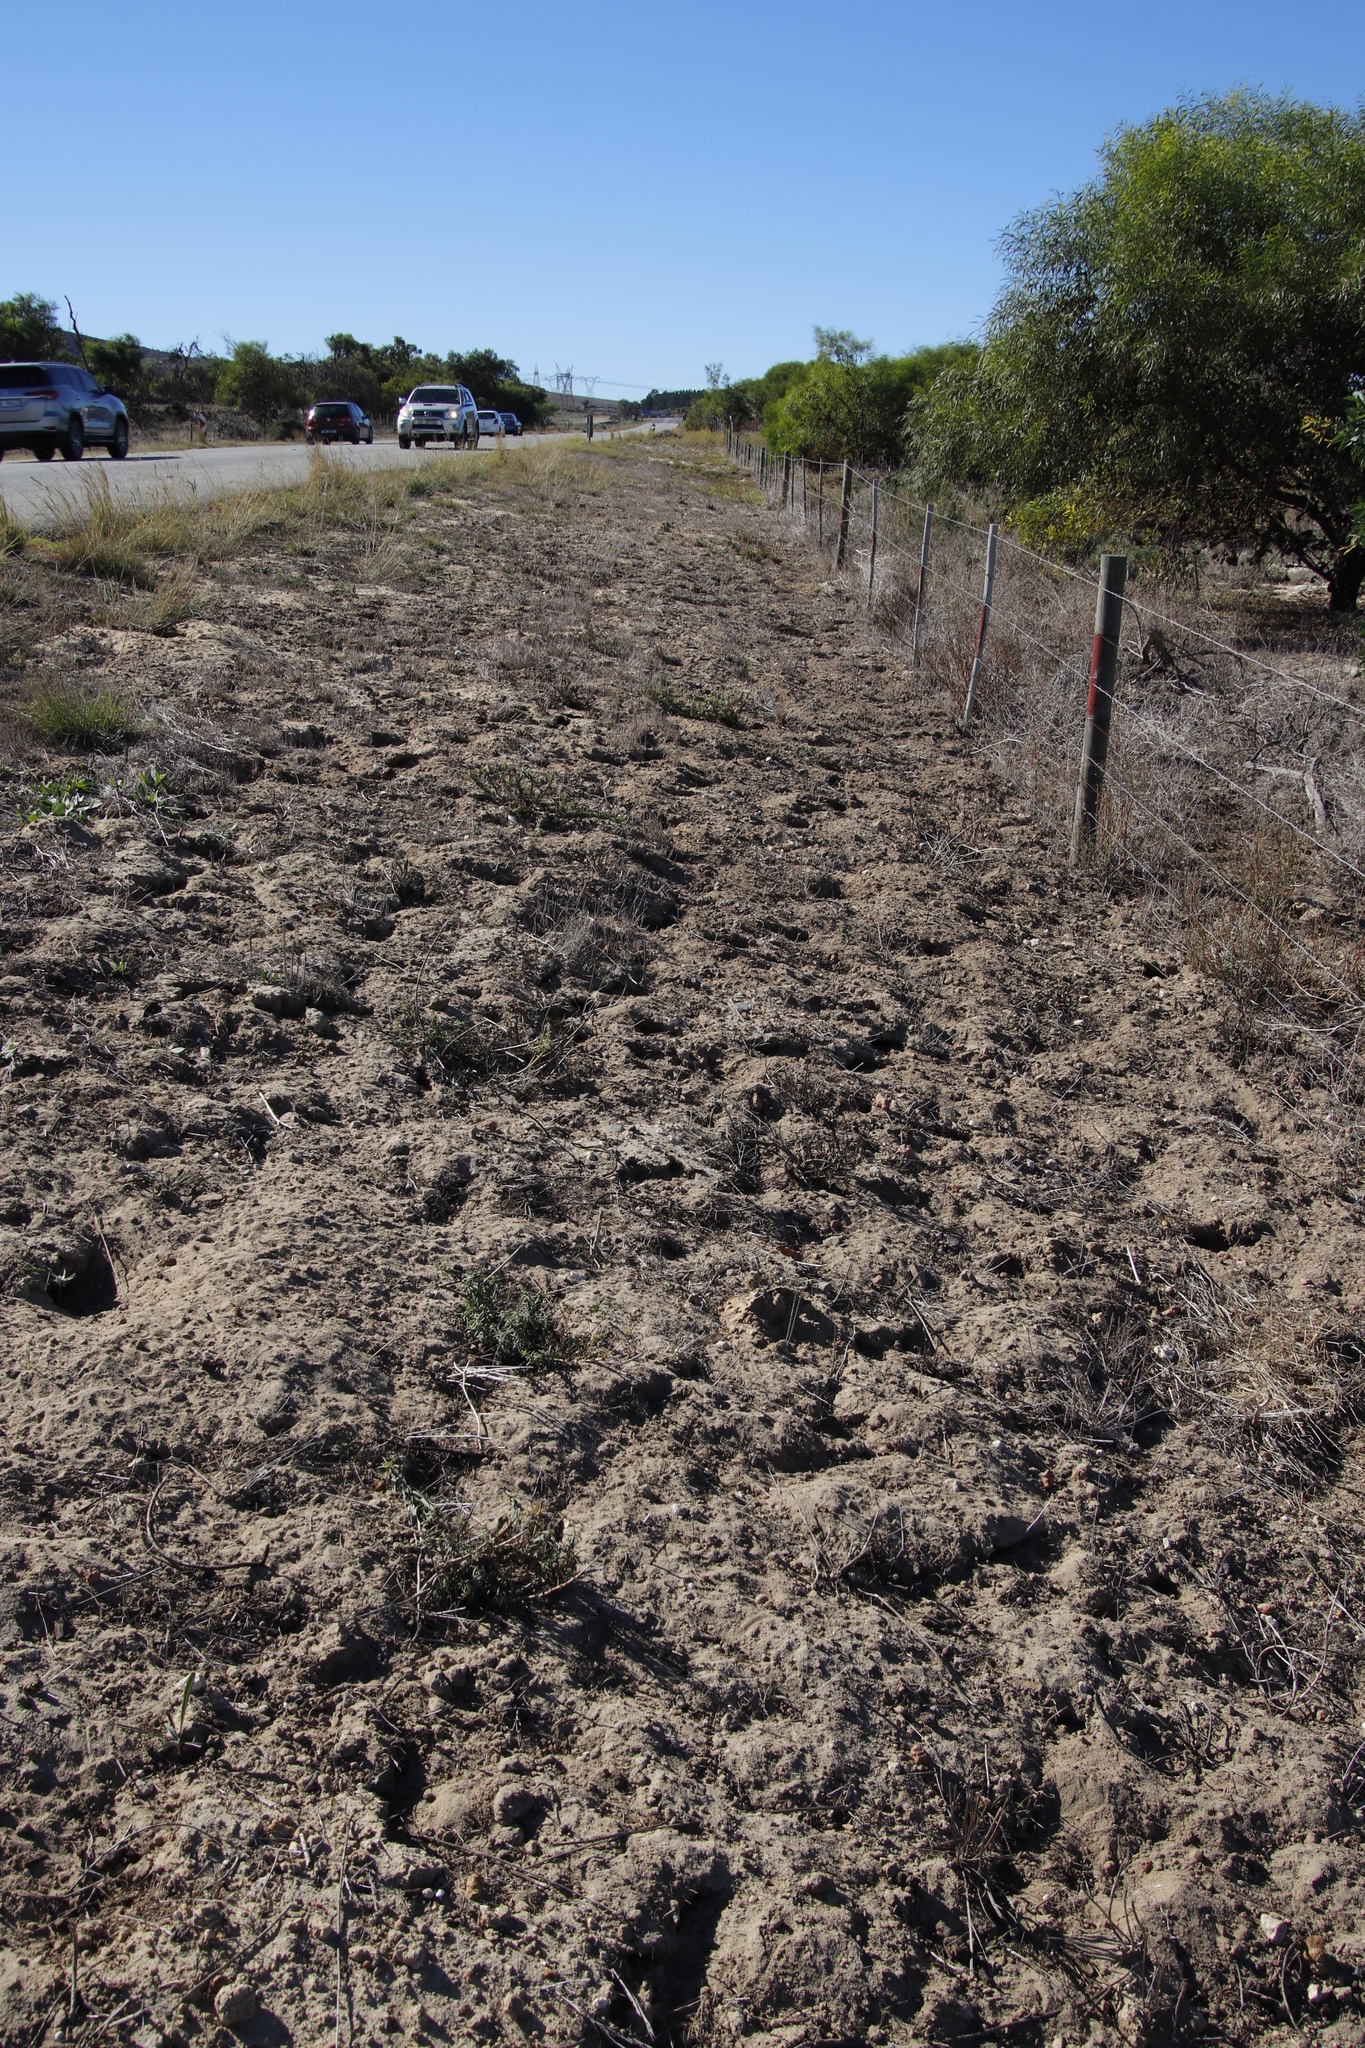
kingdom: Animalia
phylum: Chordata
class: Mammalia
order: Rodentia
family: Muridae
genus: Gerbilliscus
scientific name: Gerbilliscus afer
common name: Cape gerbil
